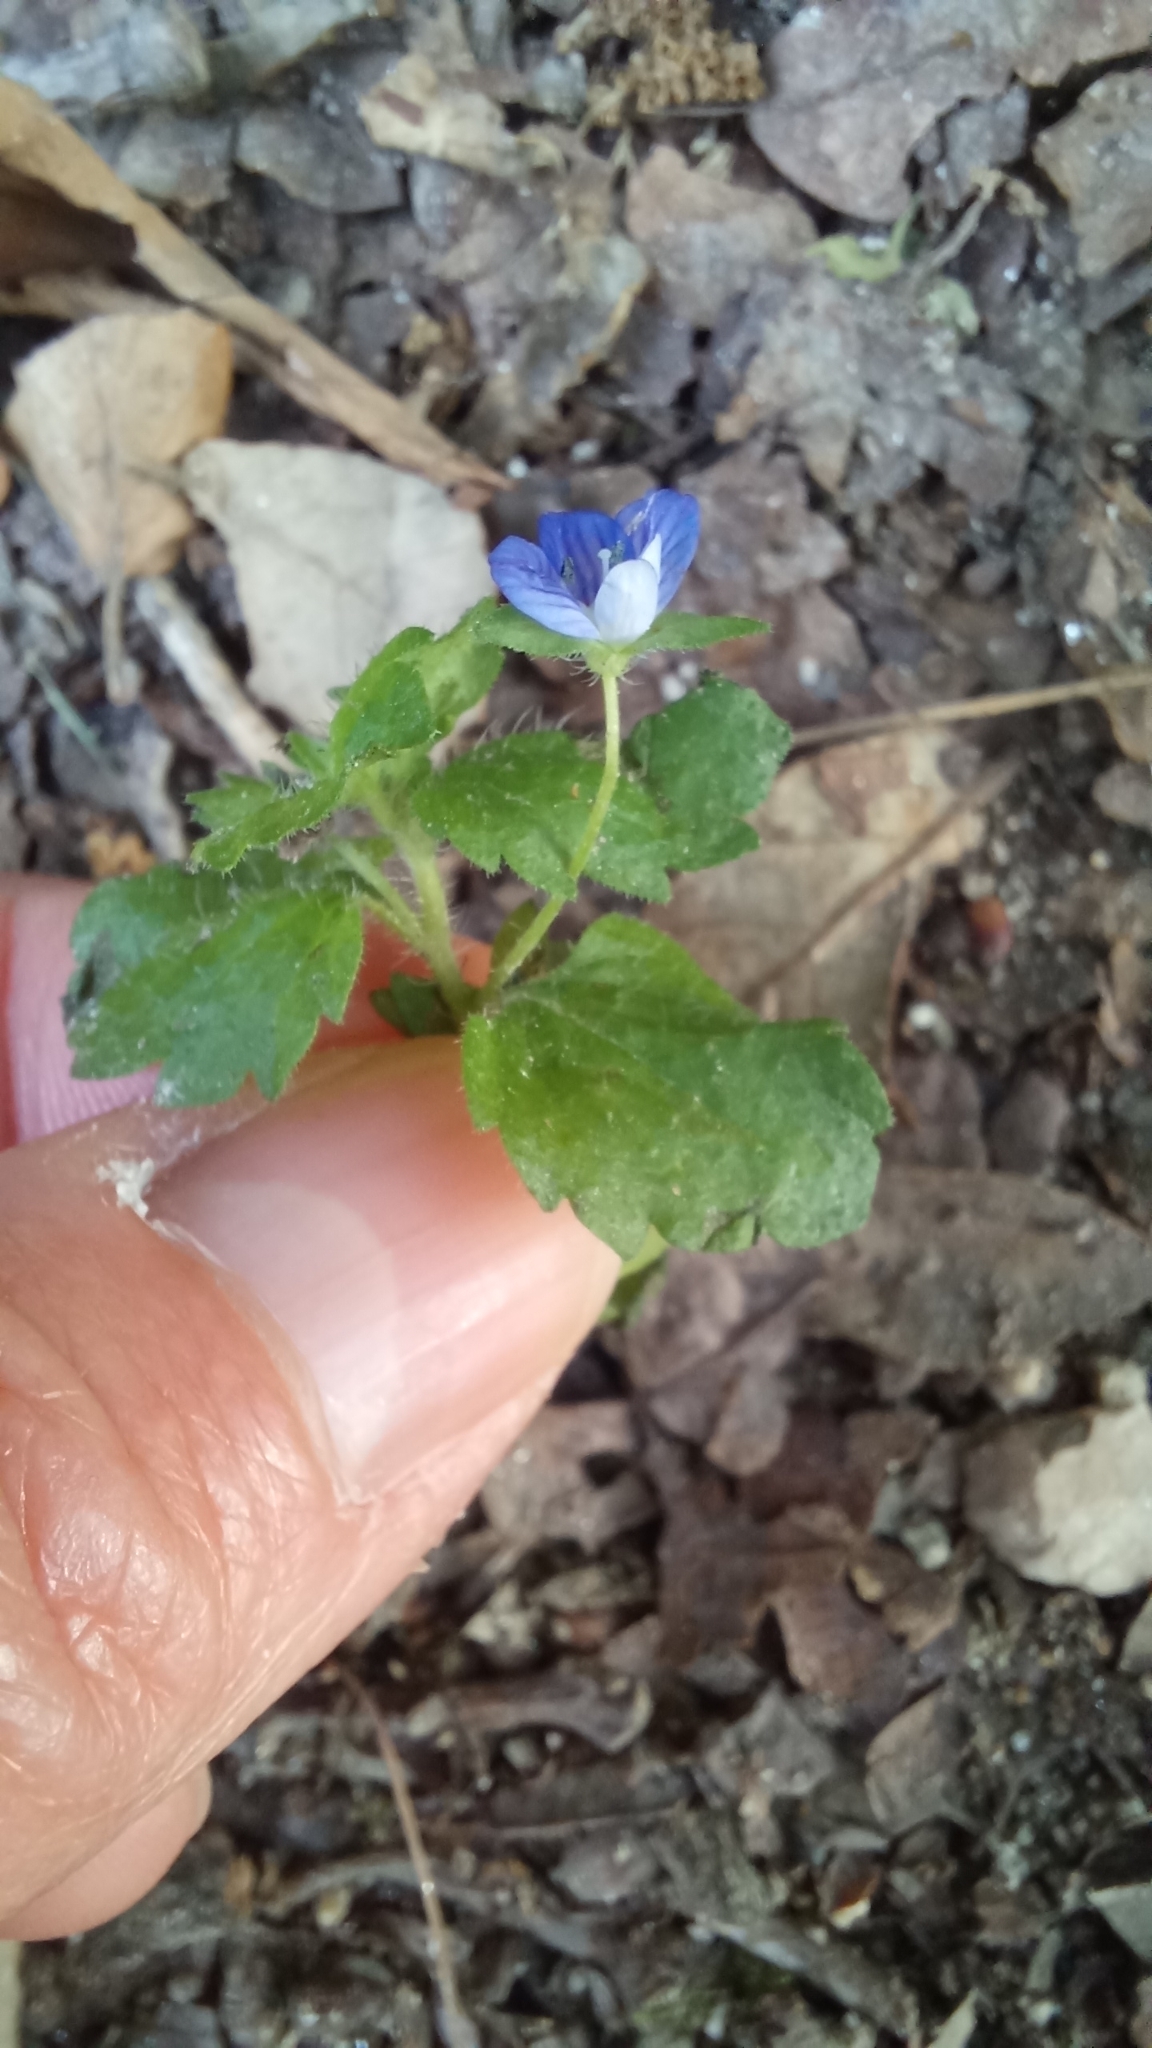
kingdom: Plantae
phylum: Tracheophyta
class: Magnoliopsida
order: Lamiales
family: Plantaginaceae
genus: Veronica
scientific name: Veronica persica
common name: Common field-speedwell
